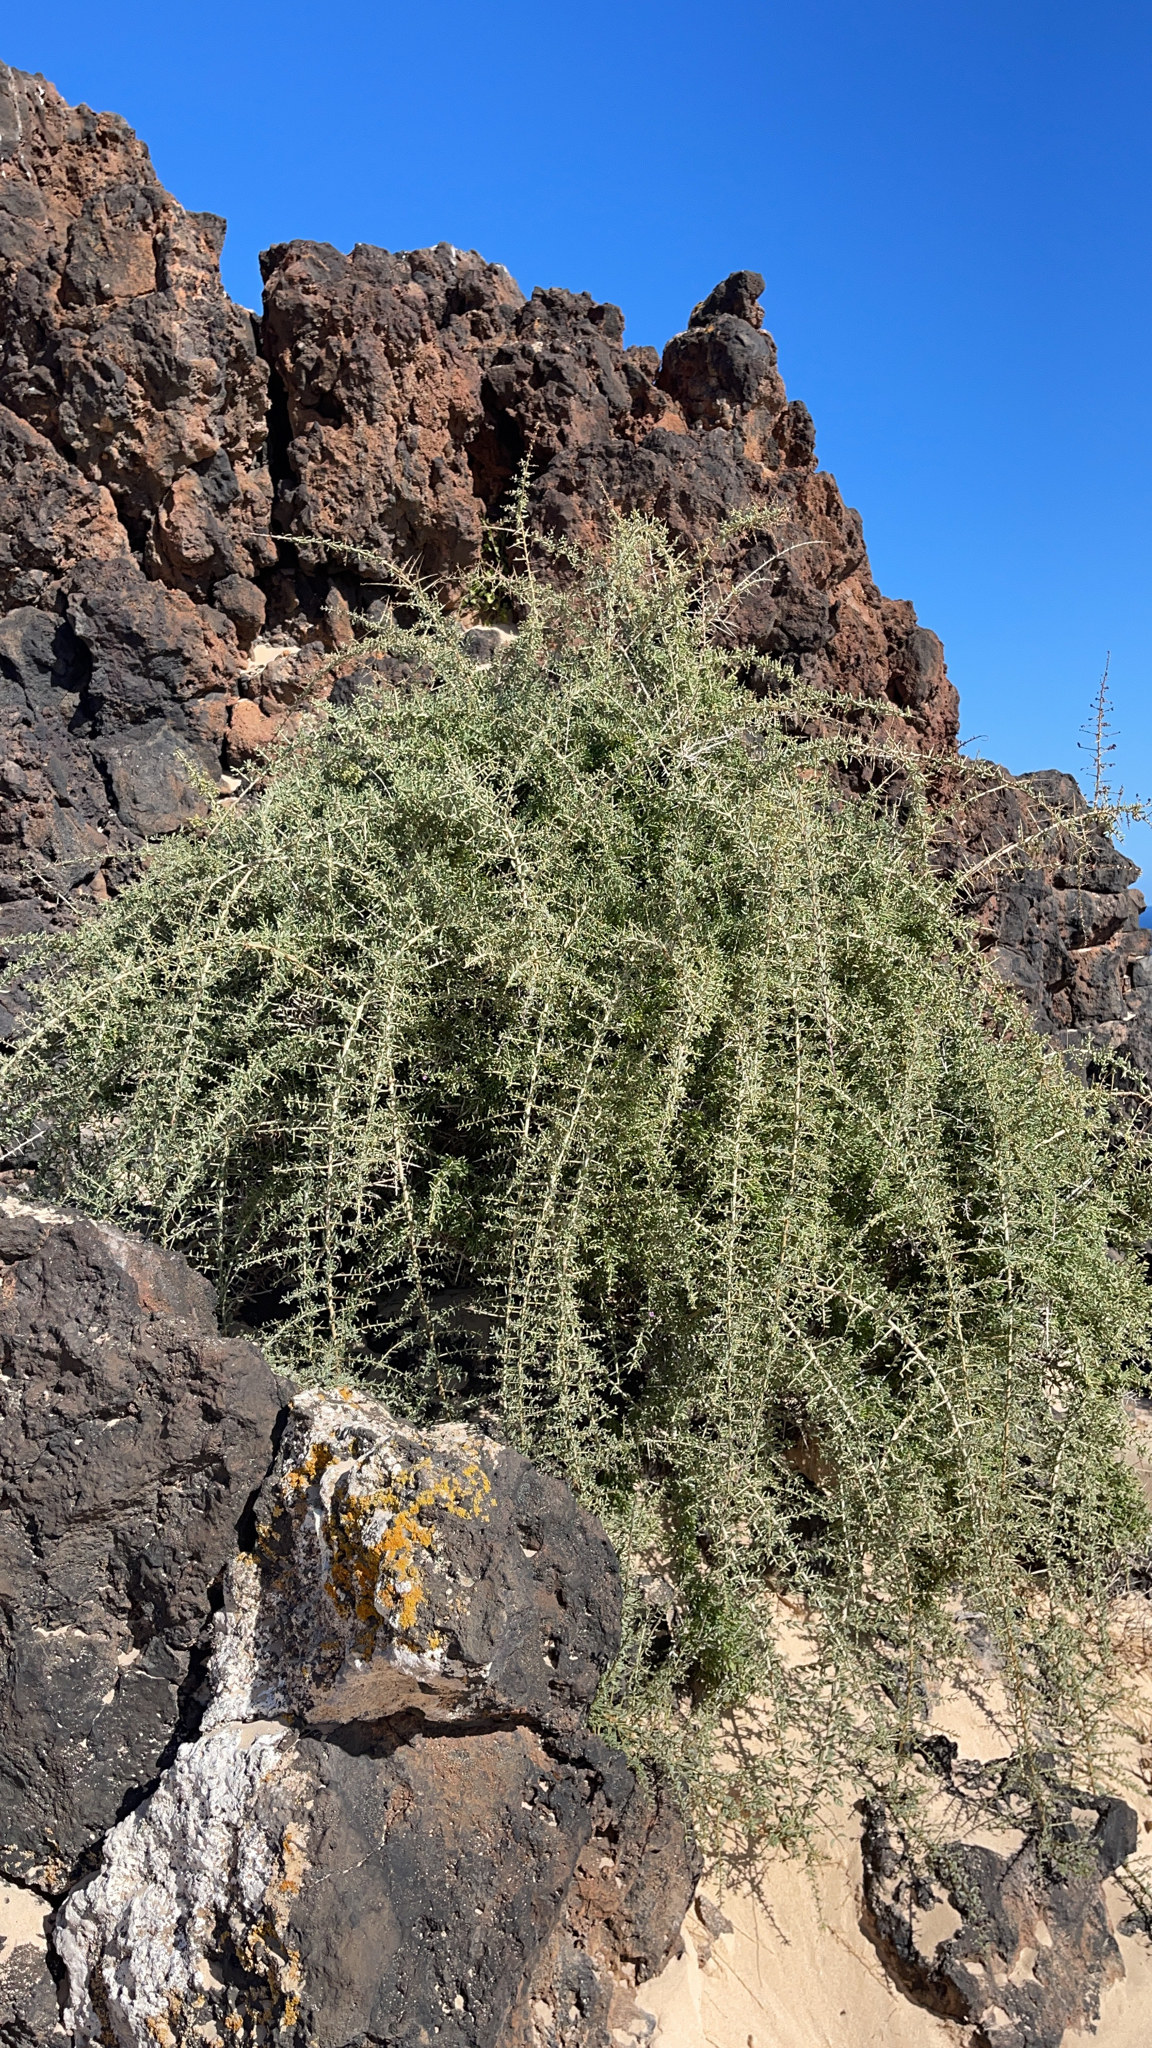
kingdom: Plantae
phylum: Tracheophyta
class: Magnoliopsida
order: Solanales
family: Solanaceae
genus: Lycium
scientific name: Lycium intricatum
